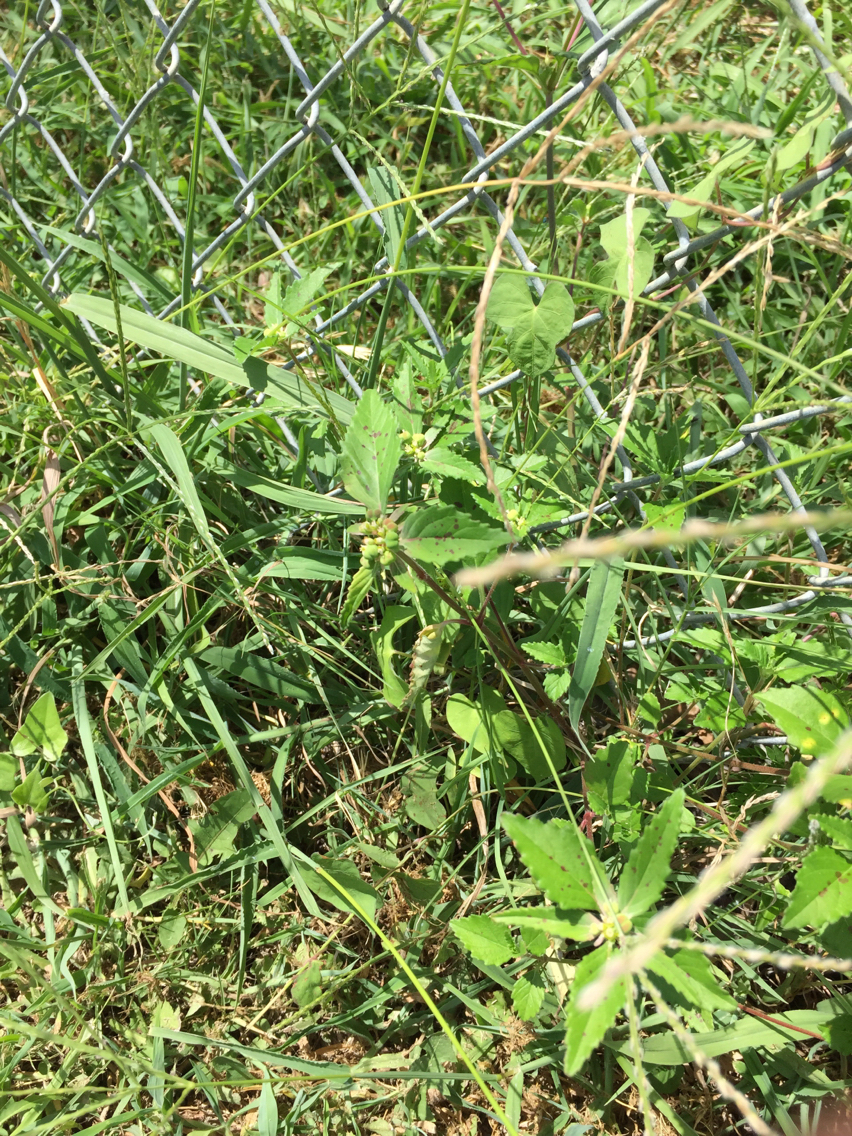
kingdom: Plantae
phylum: Tracheophyta
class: Magnoliopsida
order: Malpighiales
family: Euphorbiaceae
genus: Euphorbia
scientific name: Euphorbia dentata
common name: Dentate spurge
